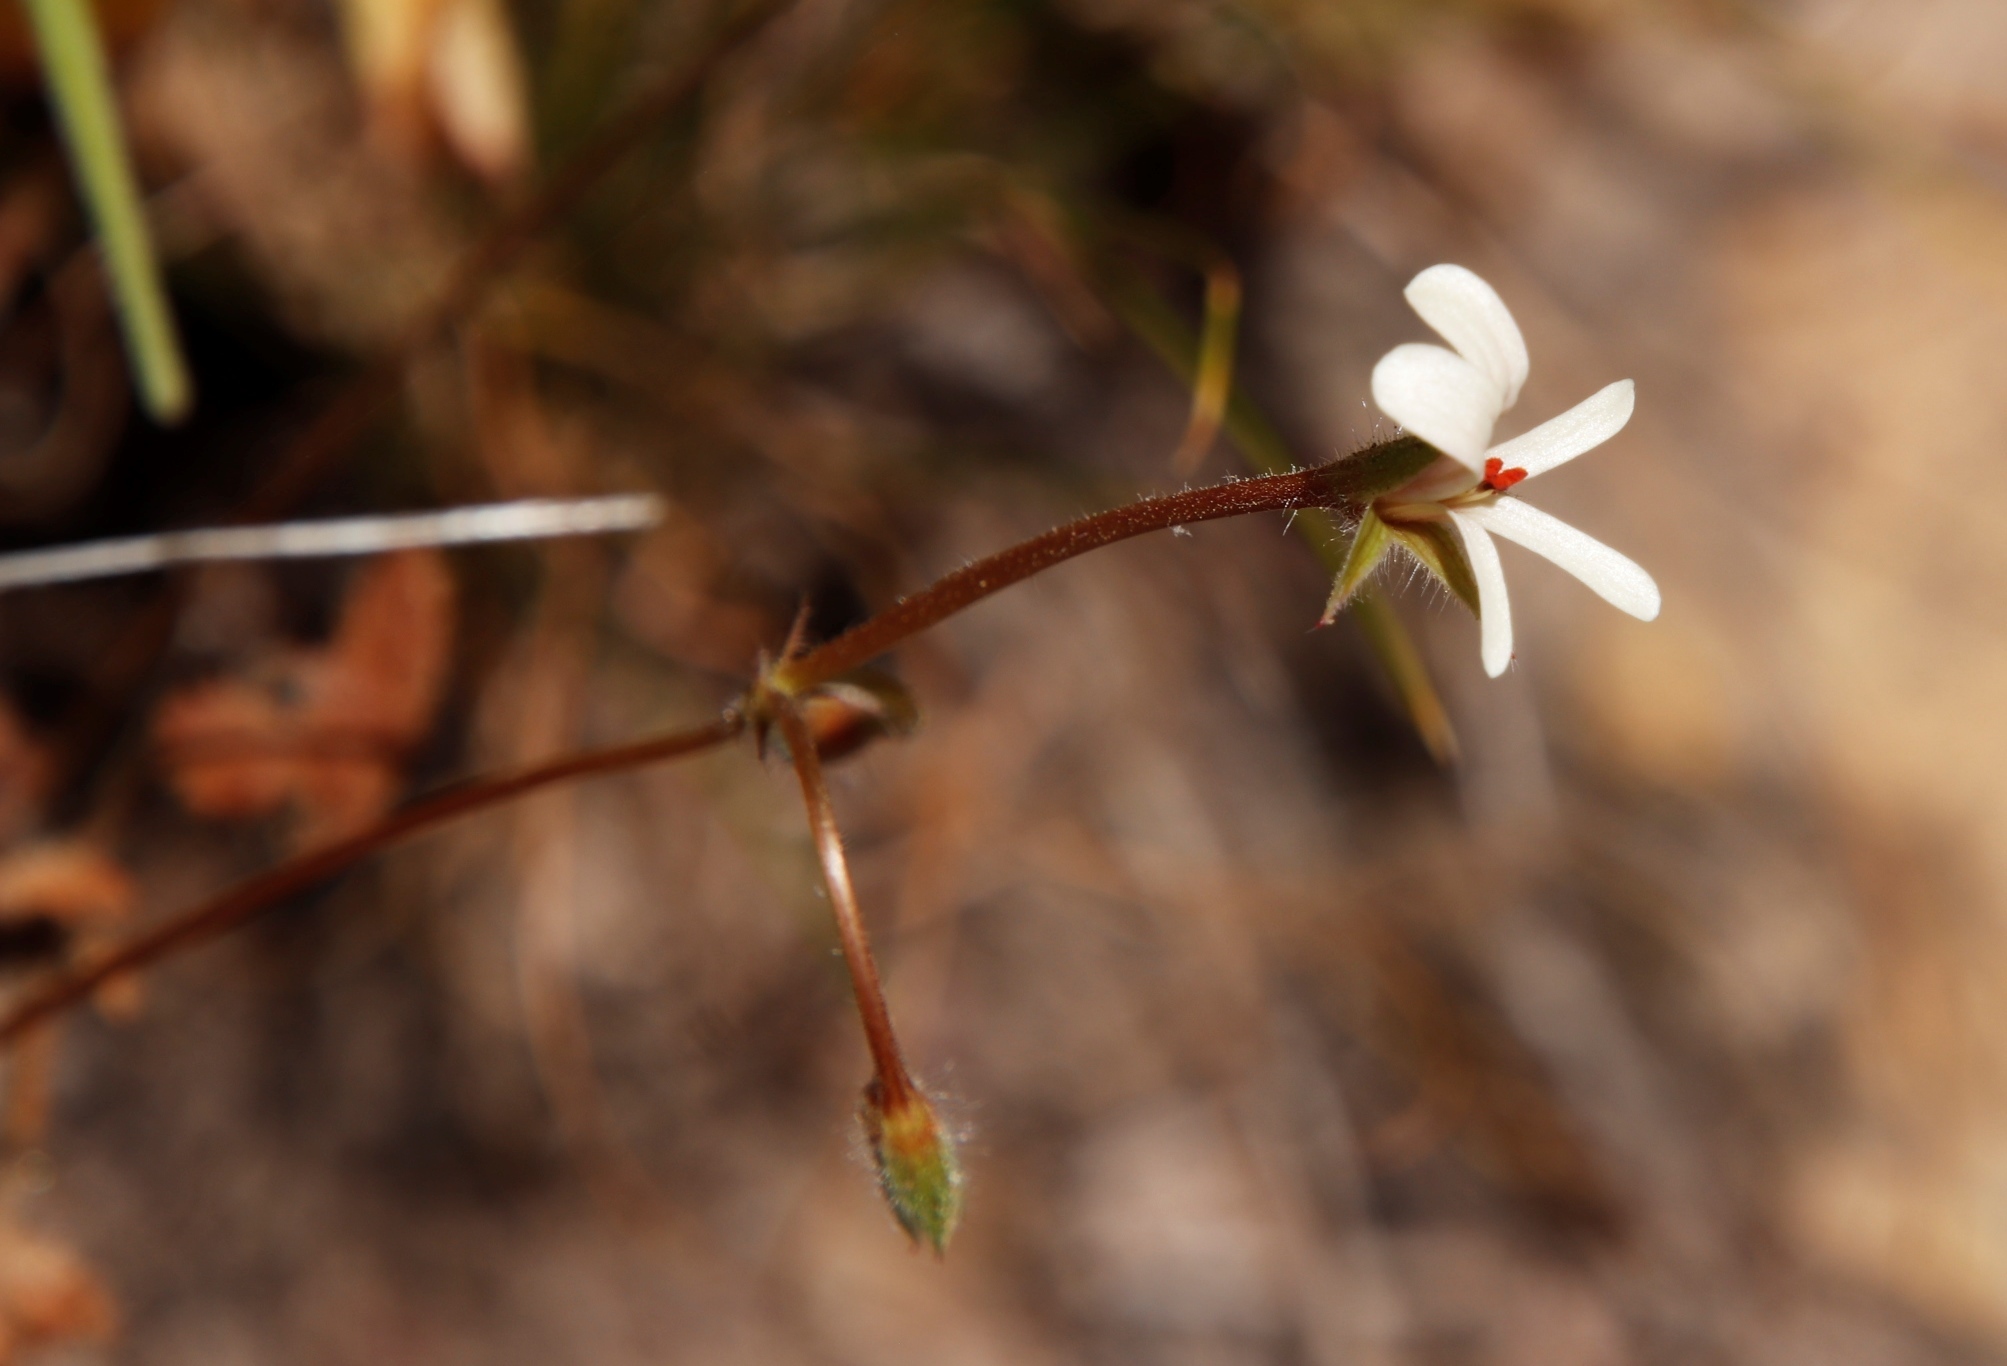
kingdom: Plantae
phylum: Tracheophyta
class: Magnoliopsida
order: Geraniales
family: Geraniaceae
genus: Pelargonium
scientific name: Pelargonium elongatum
